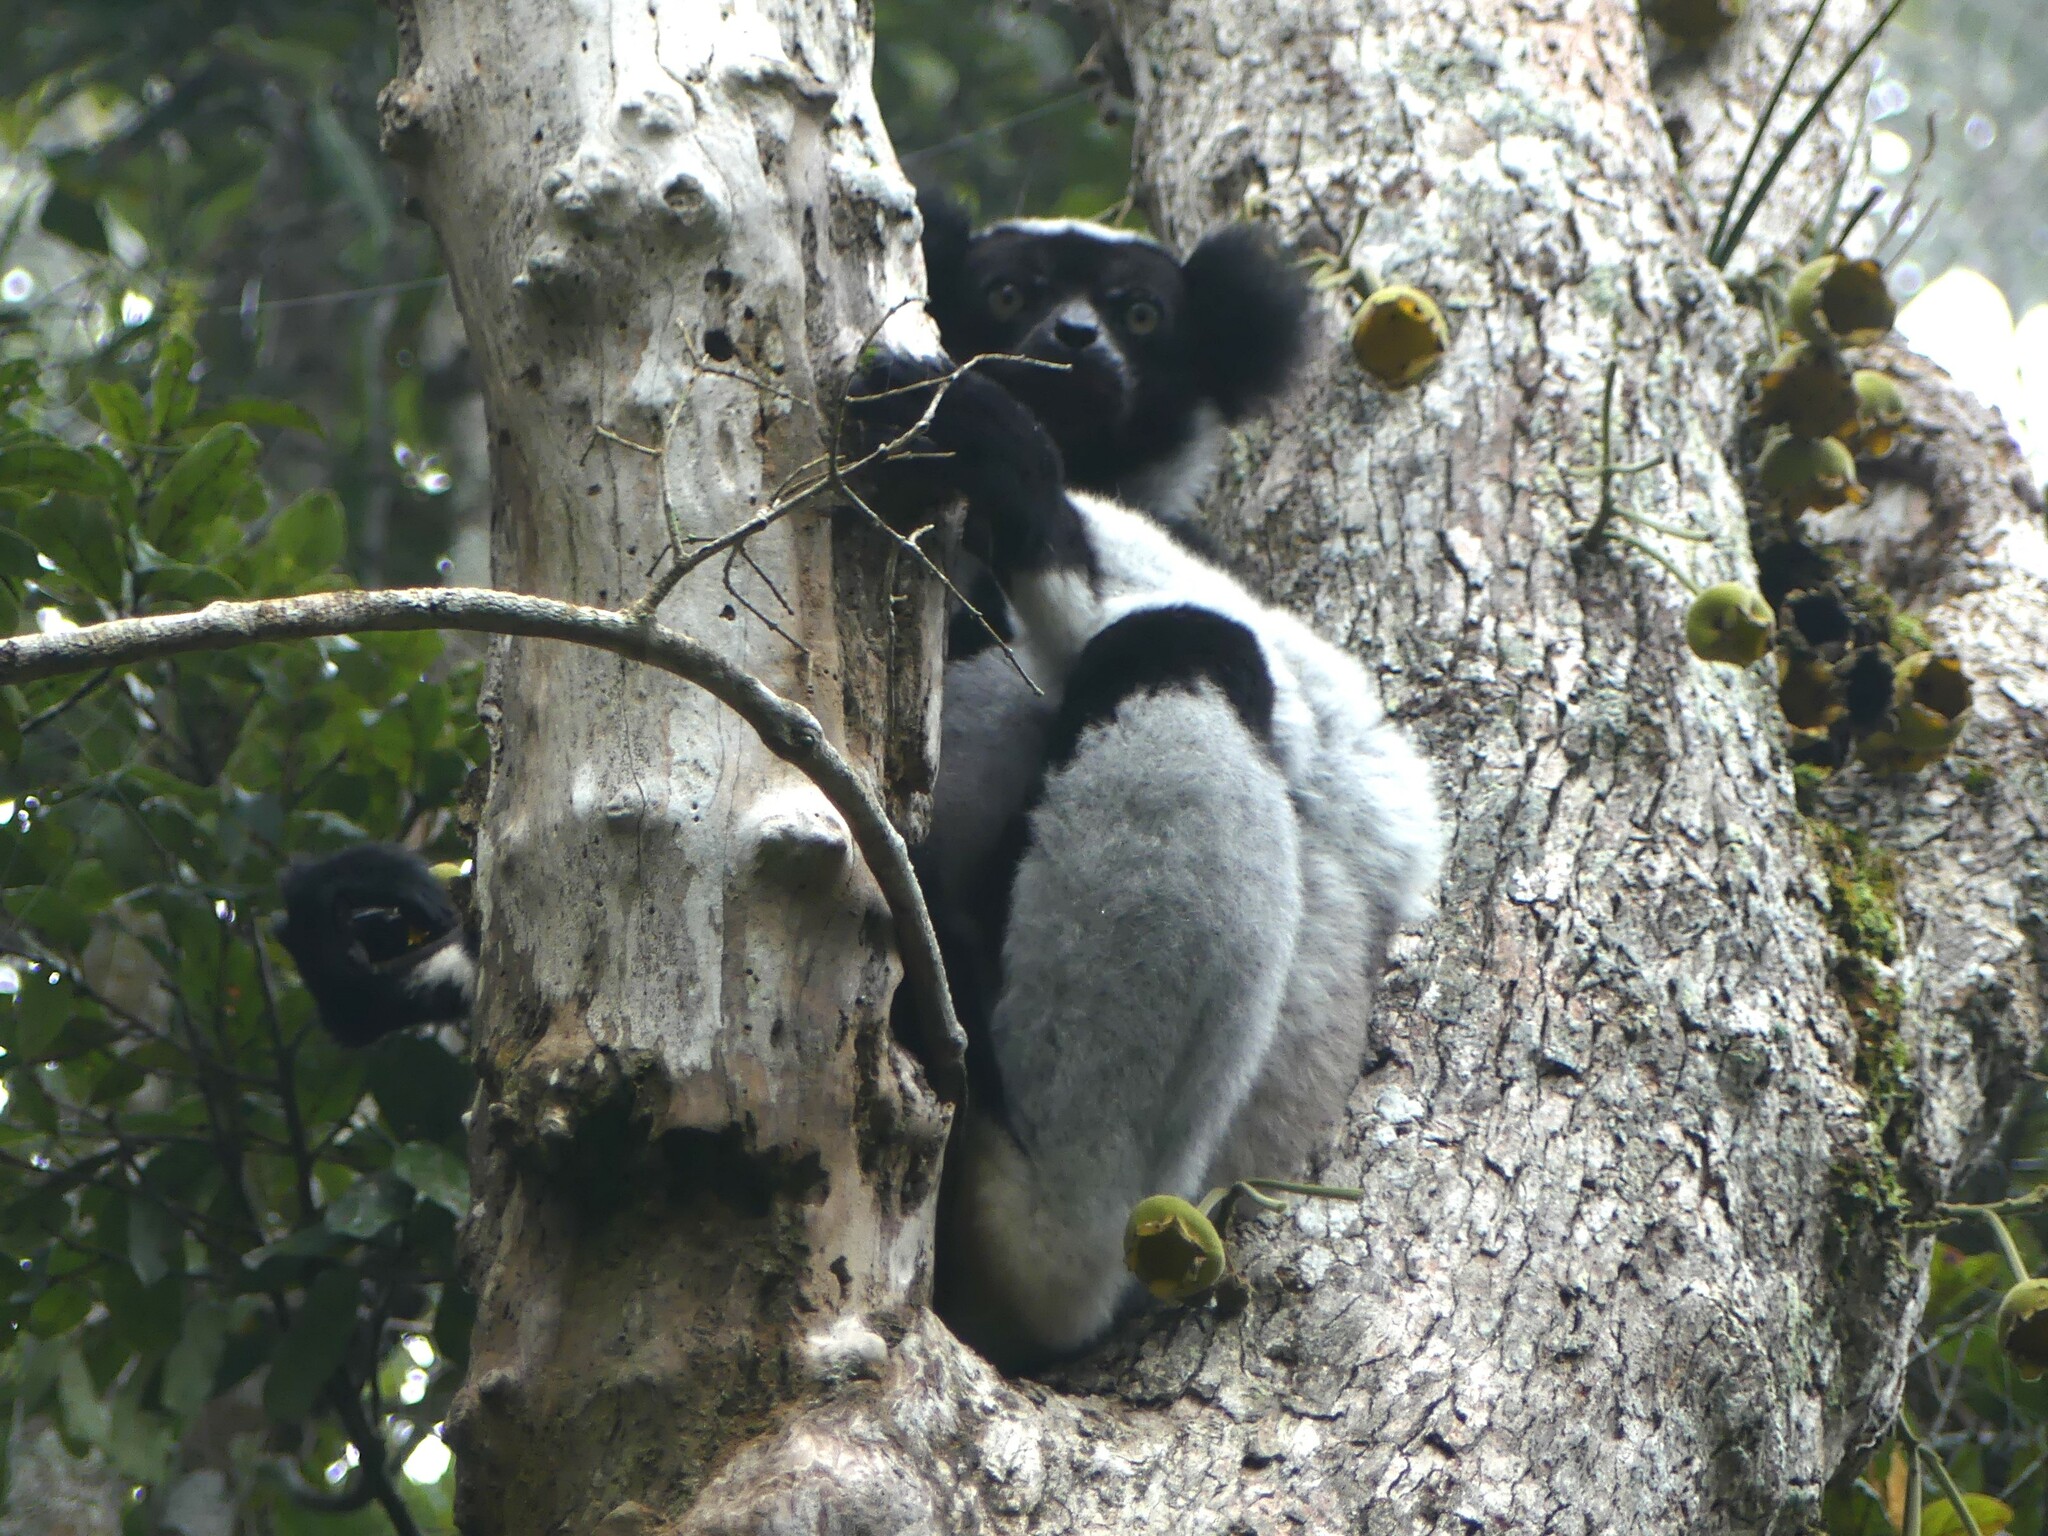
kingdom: Animalia
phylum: Chordata
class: Mammalia
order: Primates
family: Indriidae
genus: Indri
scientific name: Indri indri
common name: Indri
